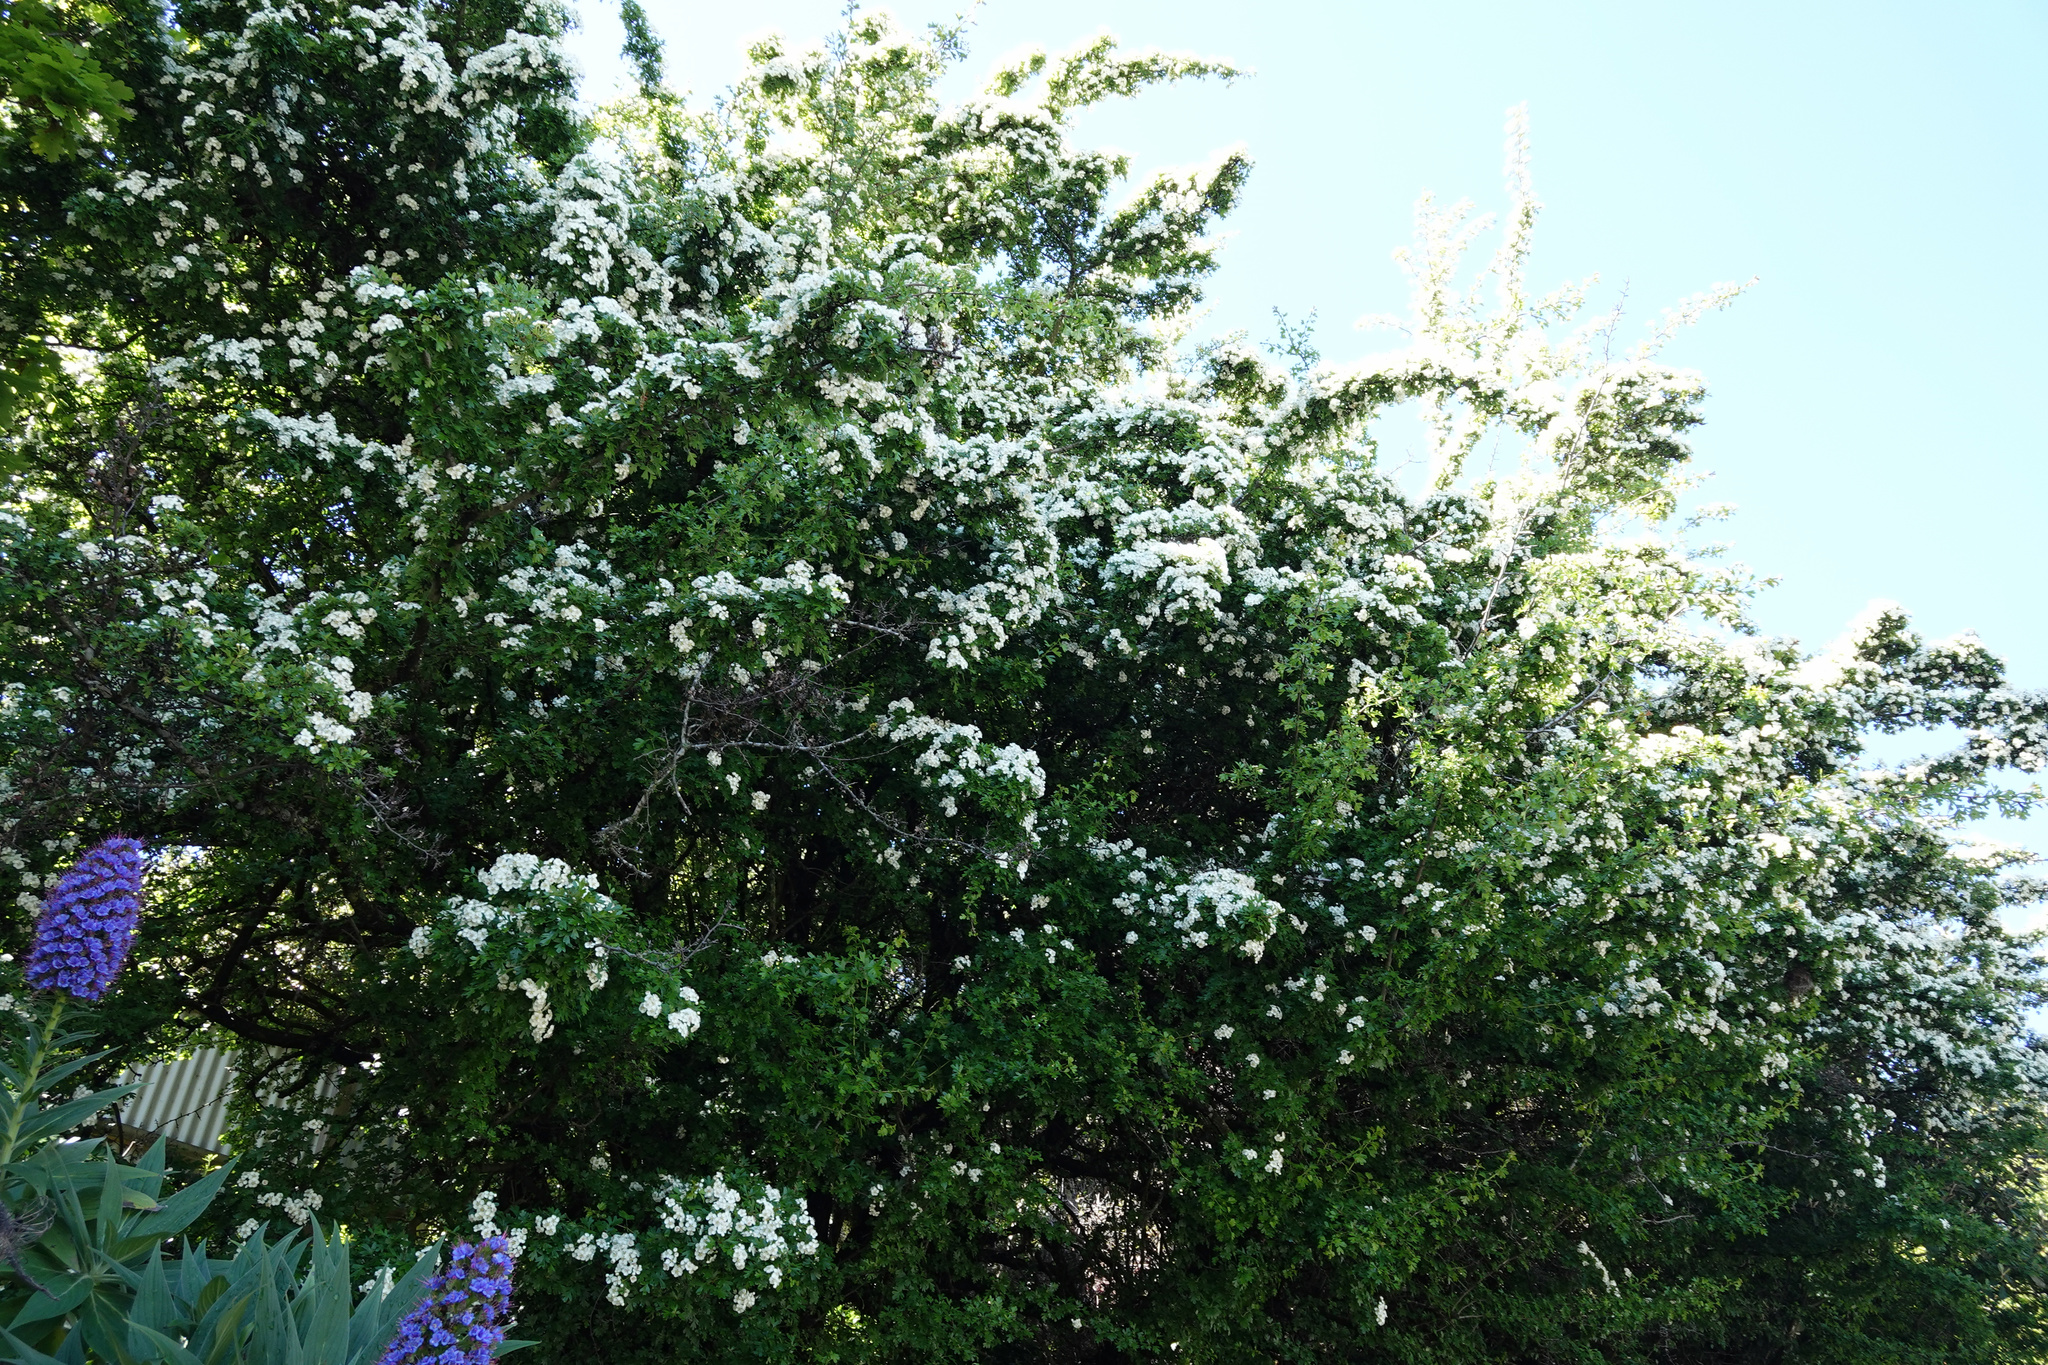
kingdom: Plantae
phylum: Tracheophyta
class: Magnoliopsida
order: Rosales
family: Rosaceae
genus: Crataegus
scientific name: Crataegus monogyna
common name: Hawthorn
